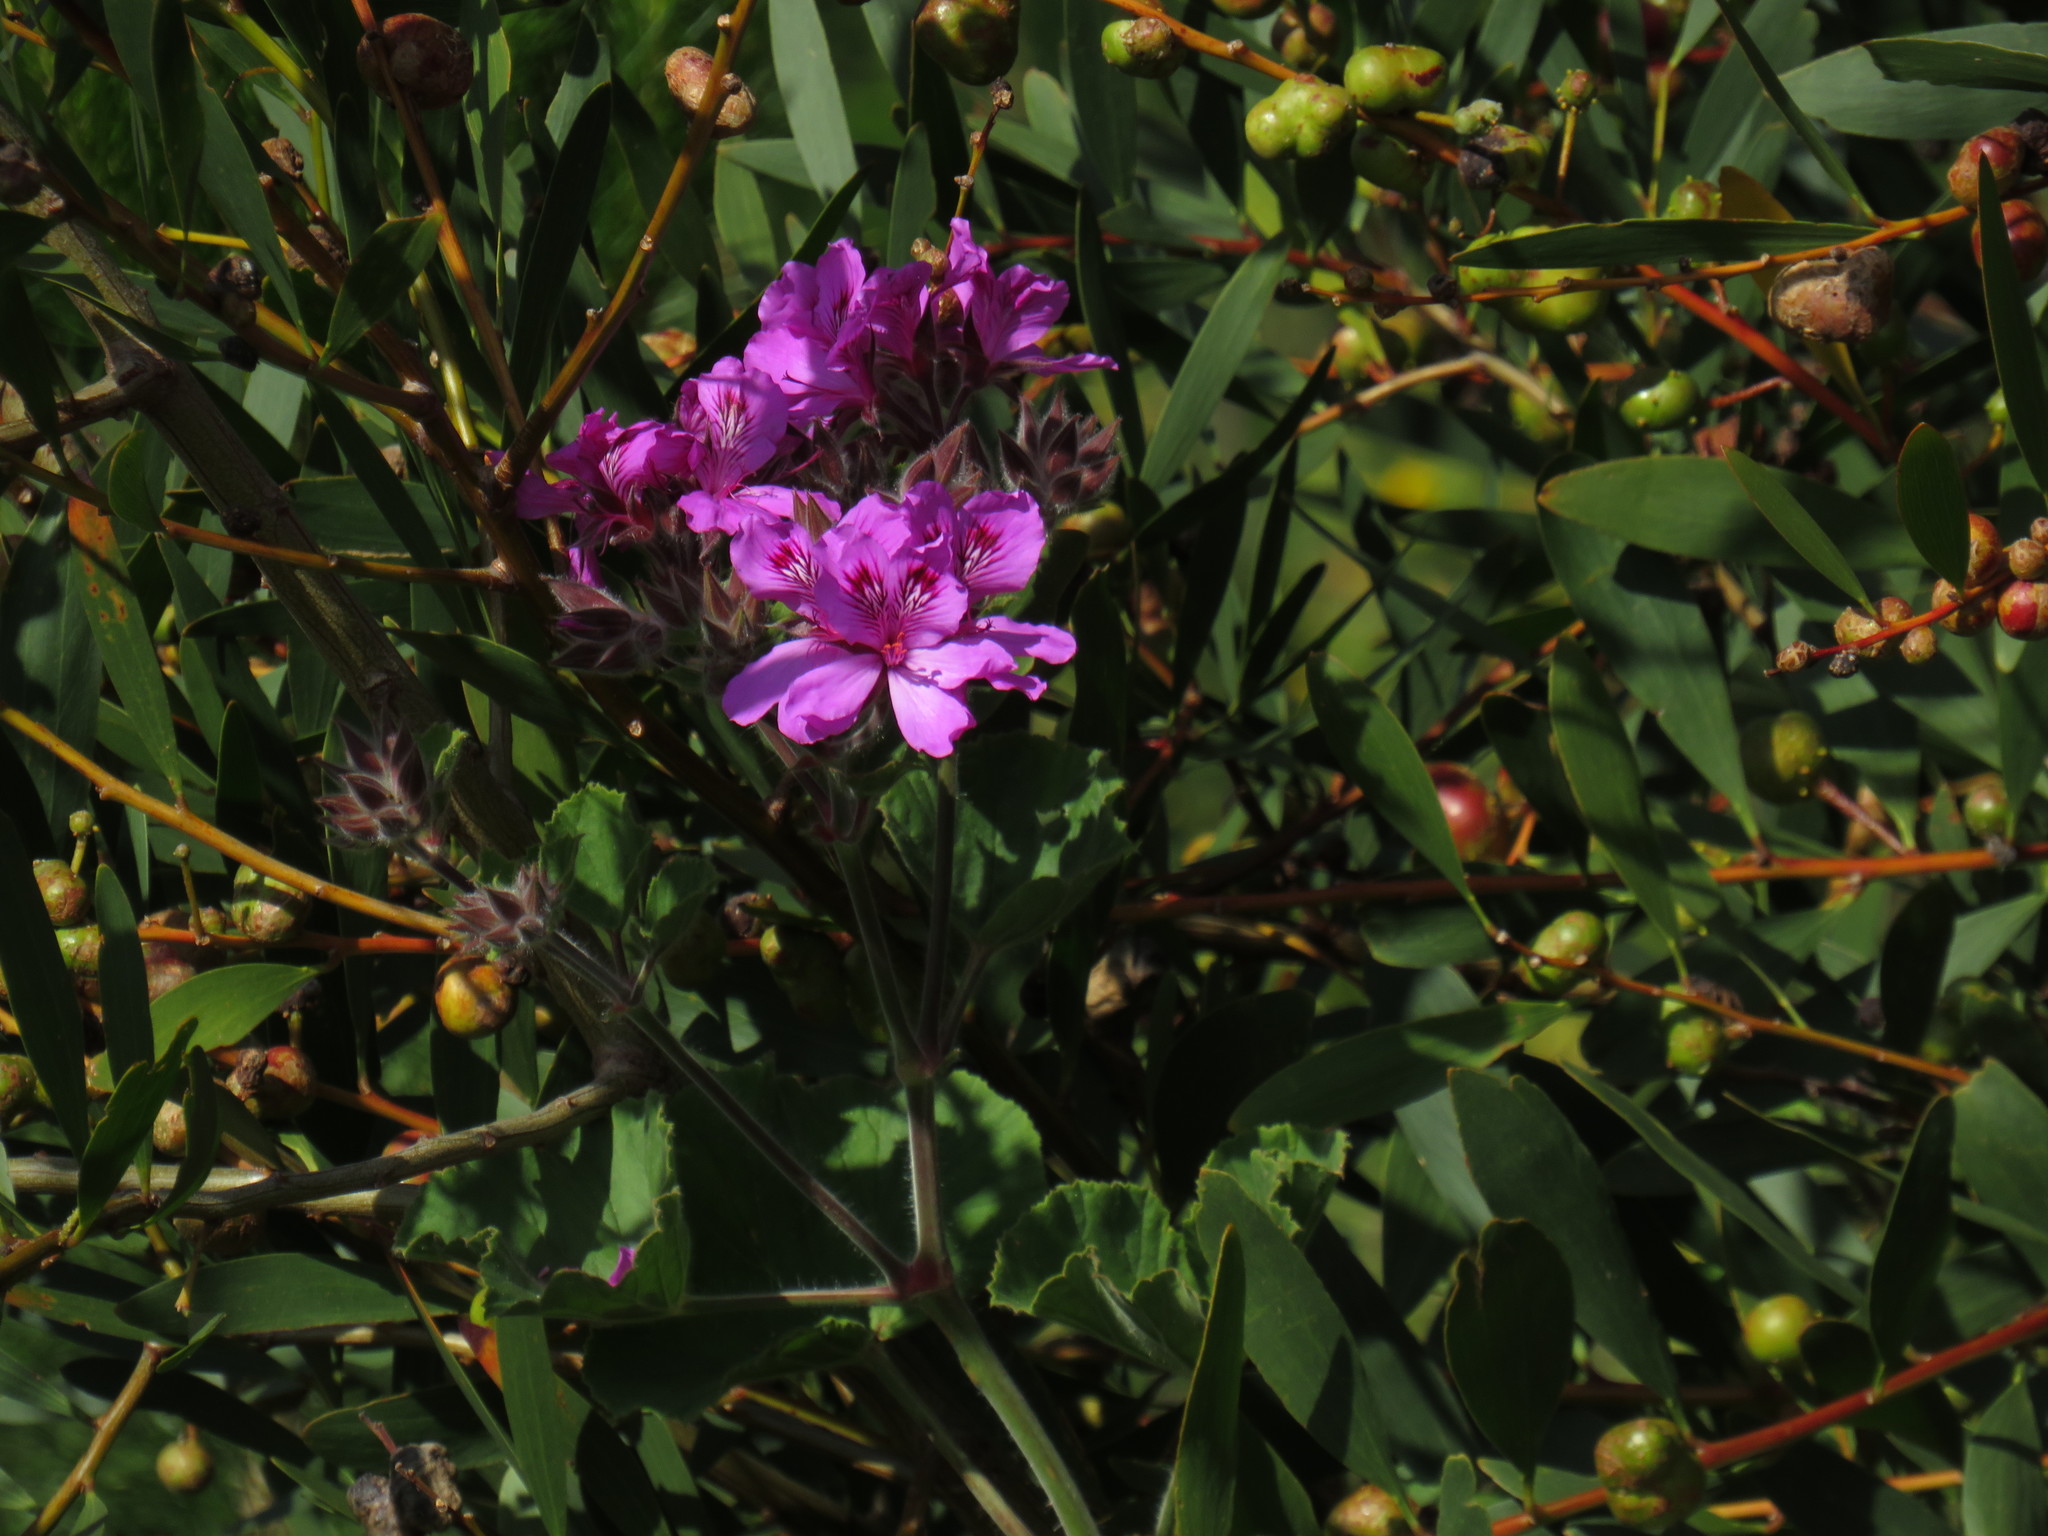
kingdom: Animalia
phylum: Arthropoda
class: Insecta
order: Hymenoptera
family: Pteromalidae
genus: Trichilogaster
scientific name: Trichilogaster acaciaelongifoliae
